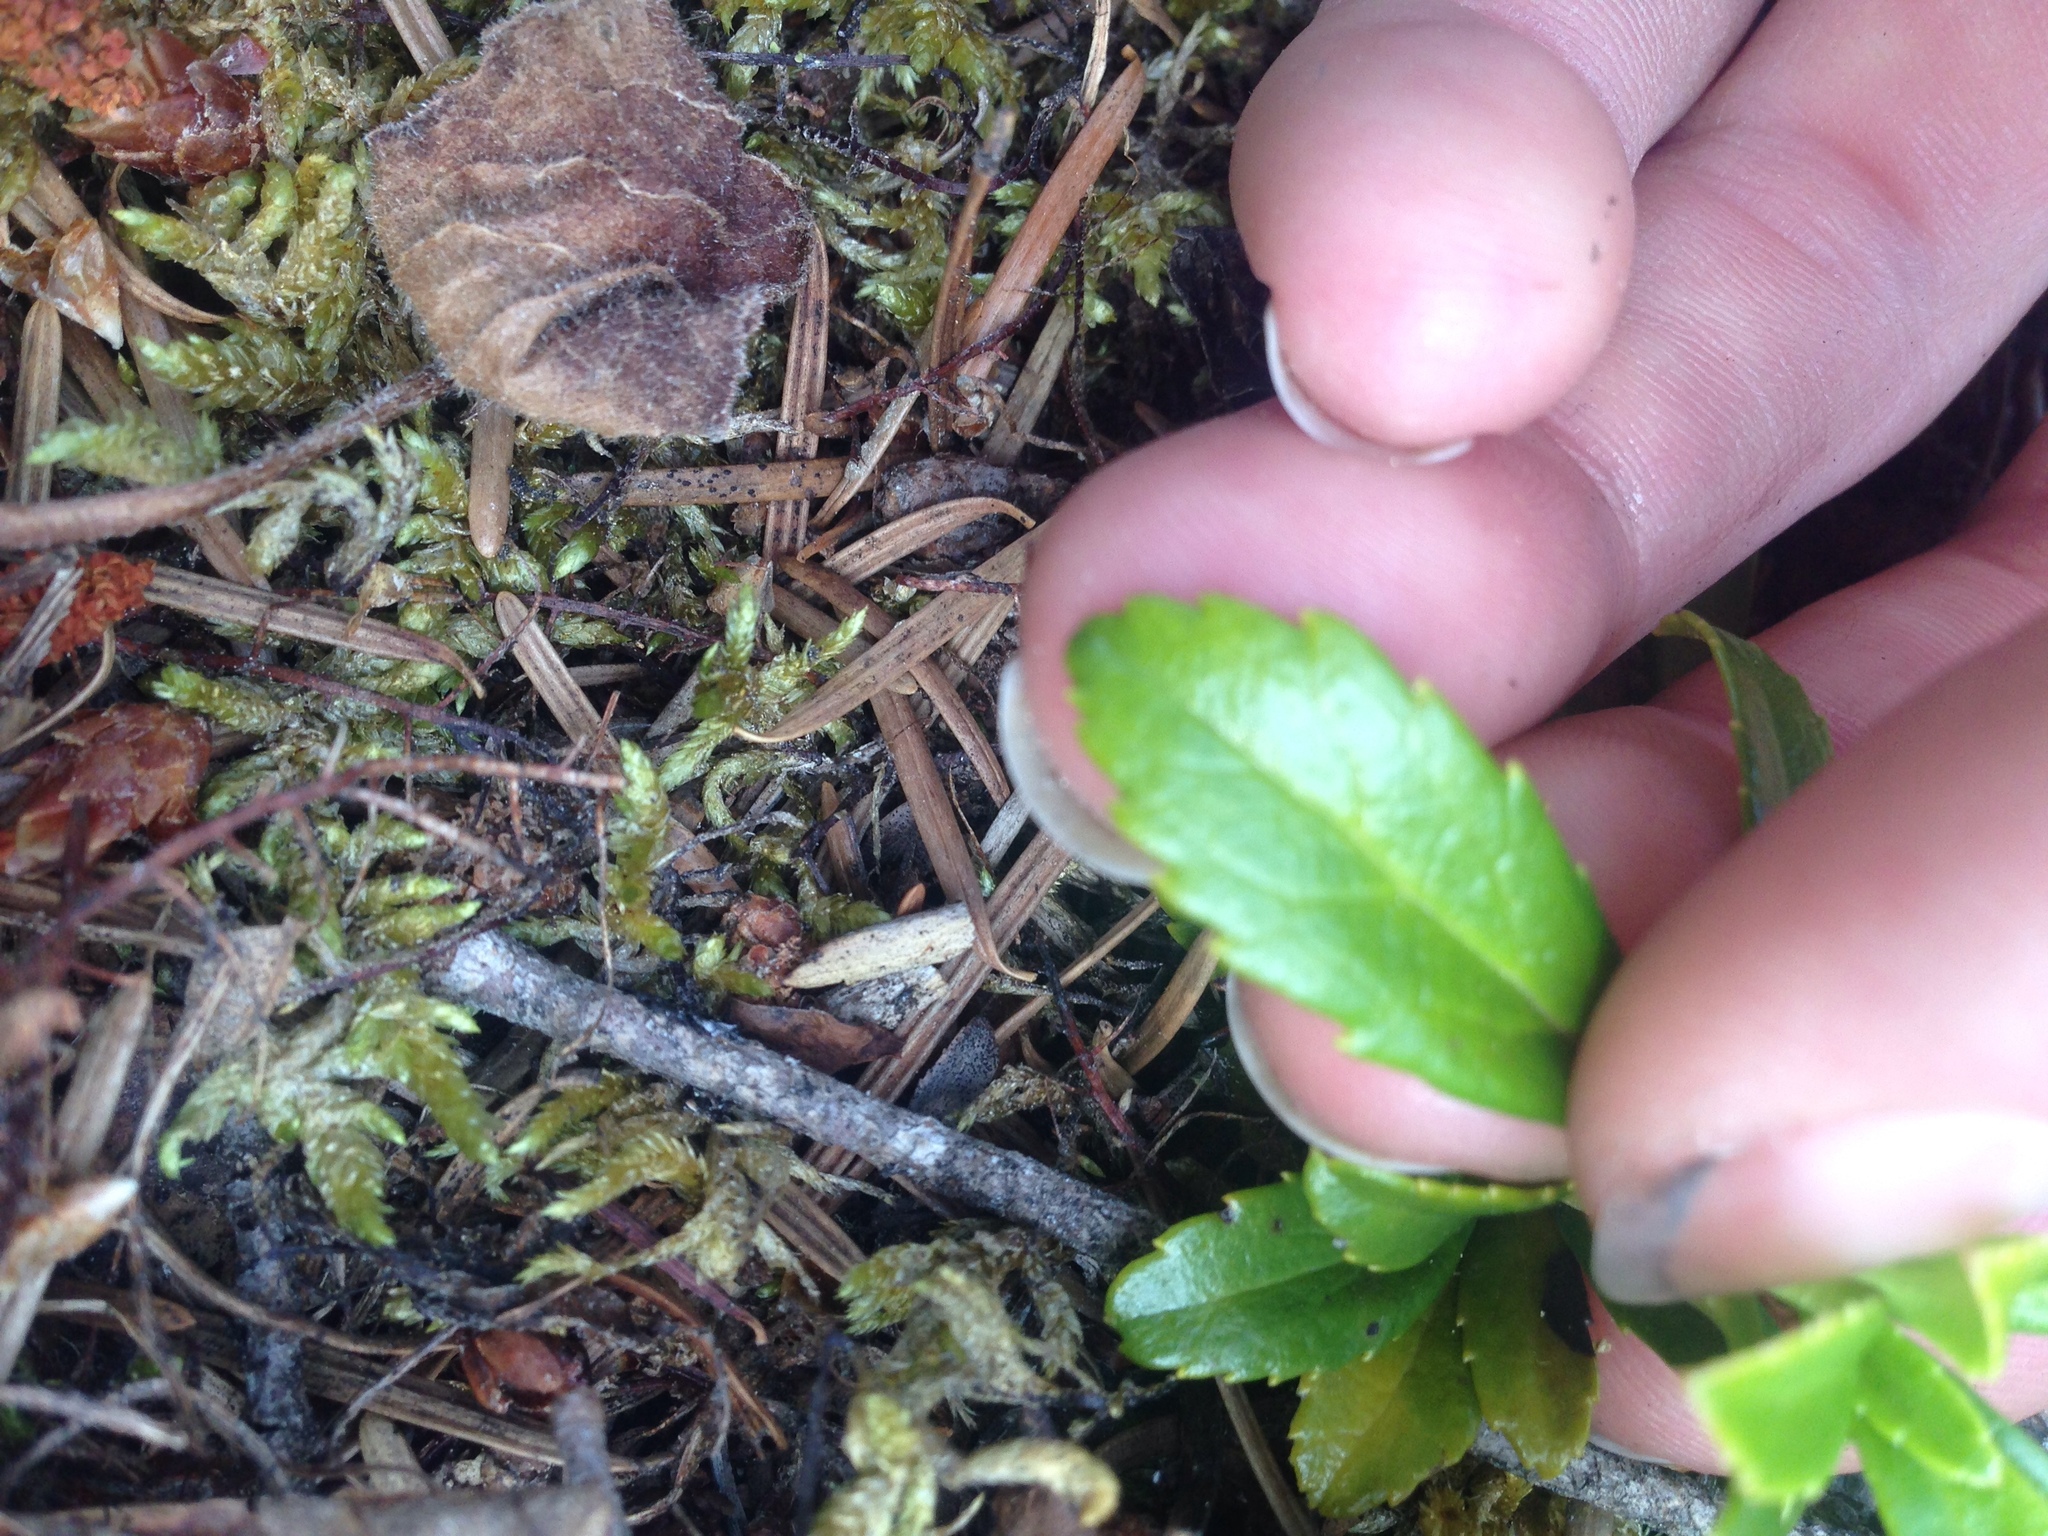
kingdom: Plantae
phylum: Tracheophyta
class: Magnoliopsida
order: Ericales
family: Ericaceae
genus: Chimaphila
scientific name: Chimaphila umbellata
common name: Pipsissewa
